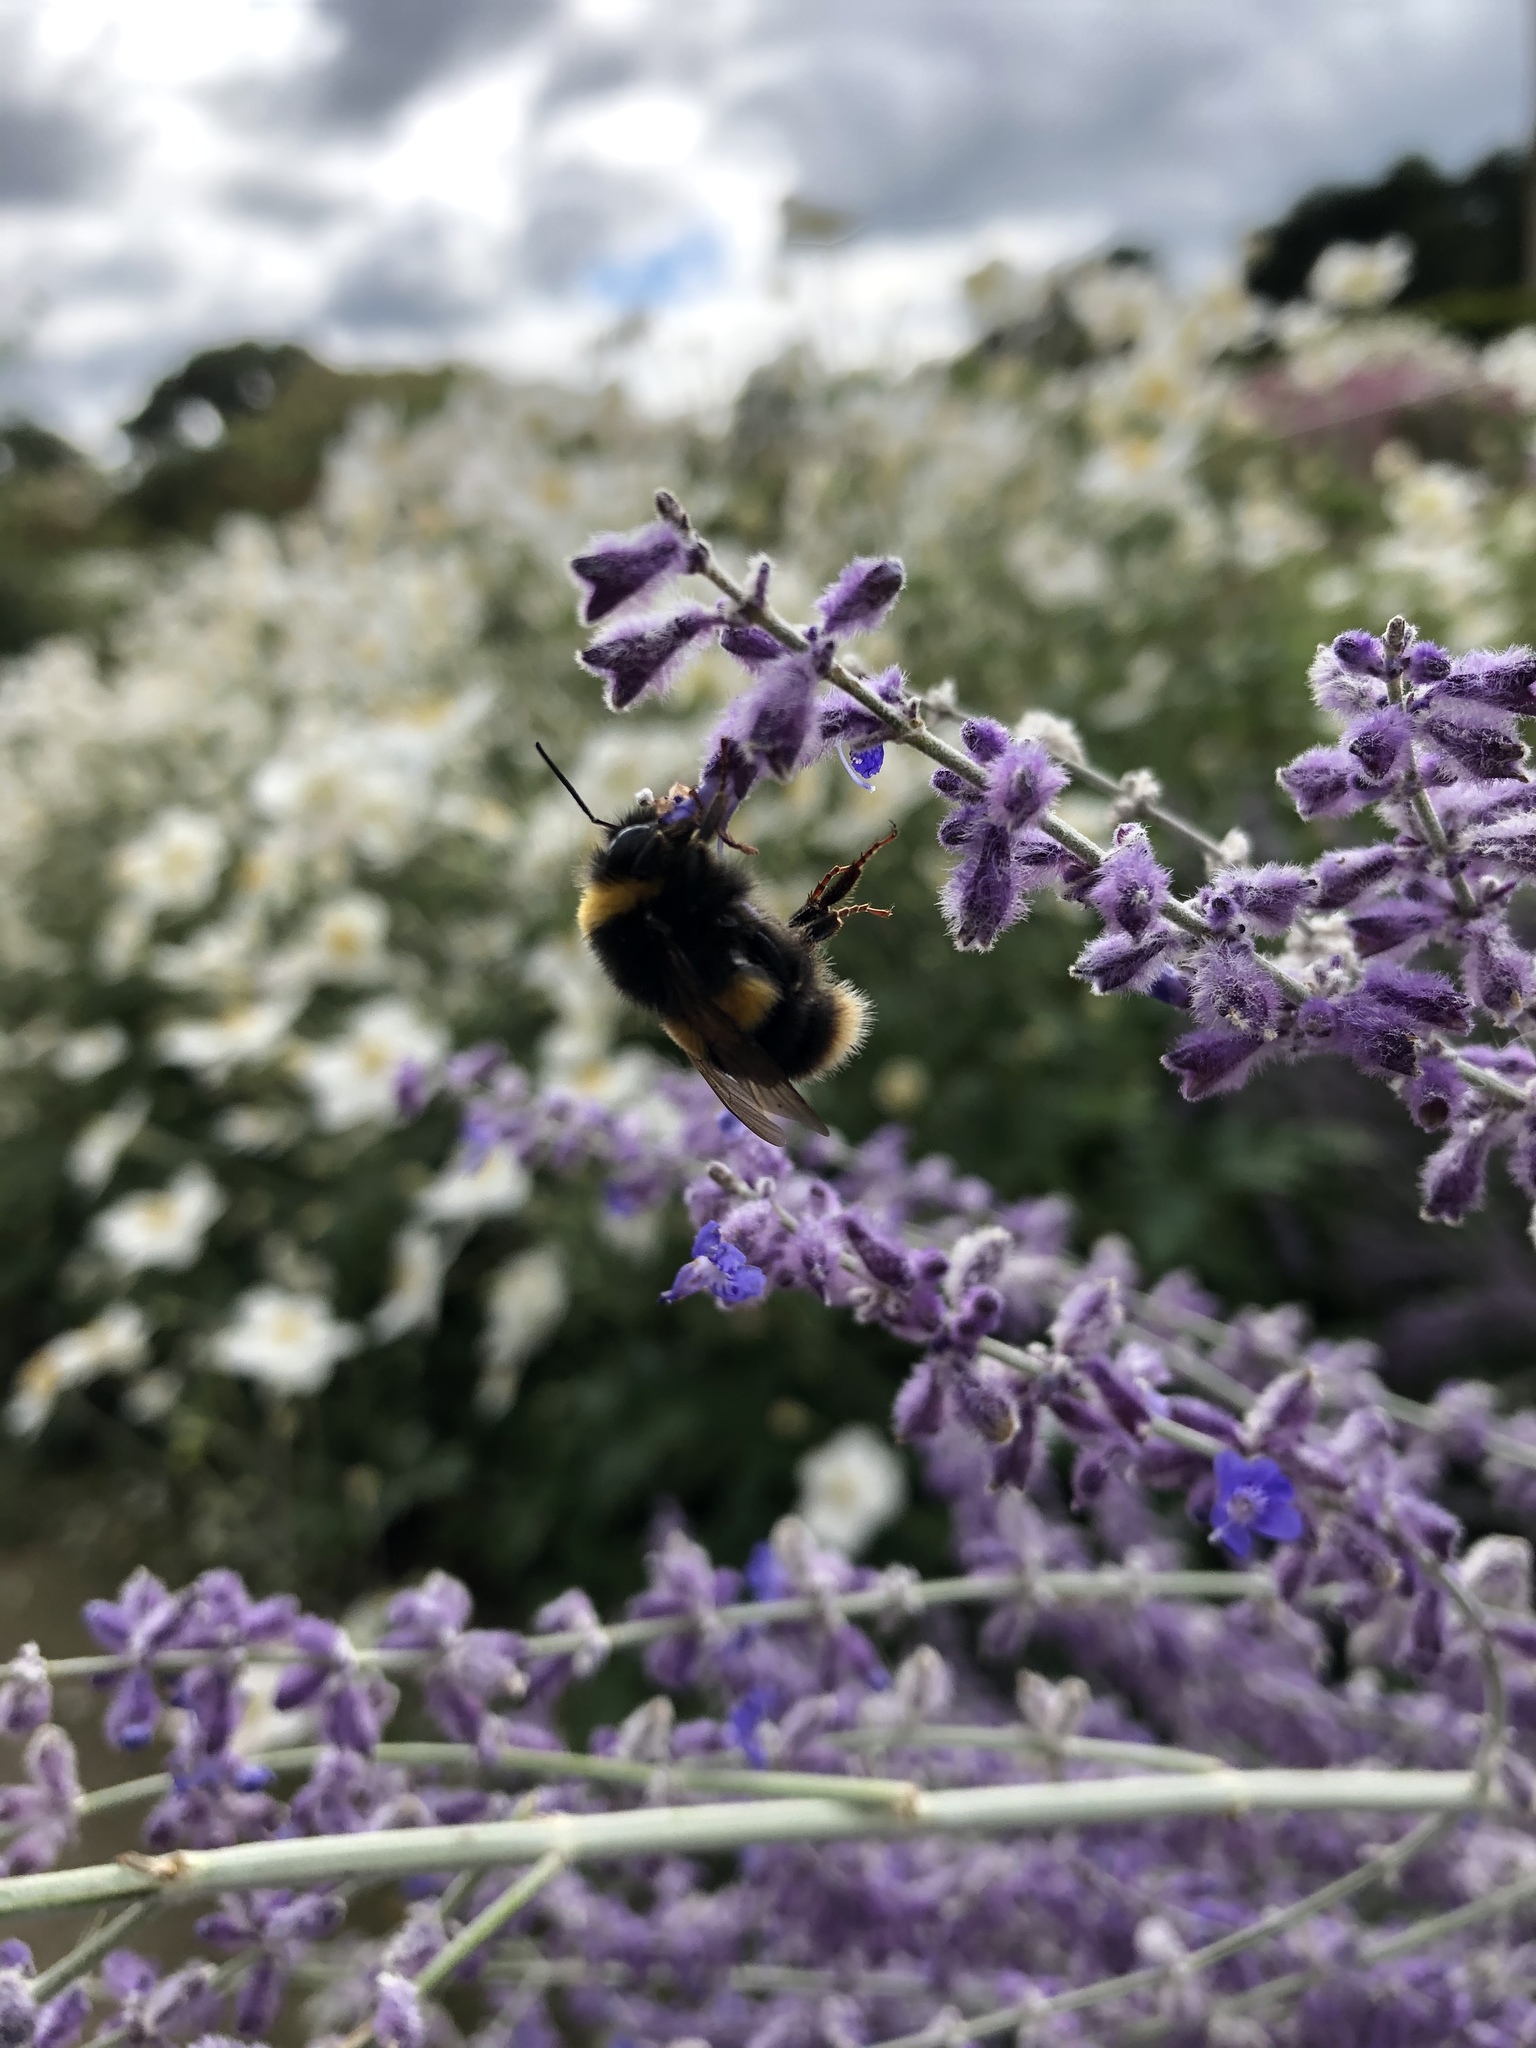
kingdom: Animalia
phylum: Arthropoda
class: Insecta
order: Hymenoptera
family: Apidae
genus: Bombus
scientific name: Bombus terrestris
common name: Buff-tailed bumblebee
